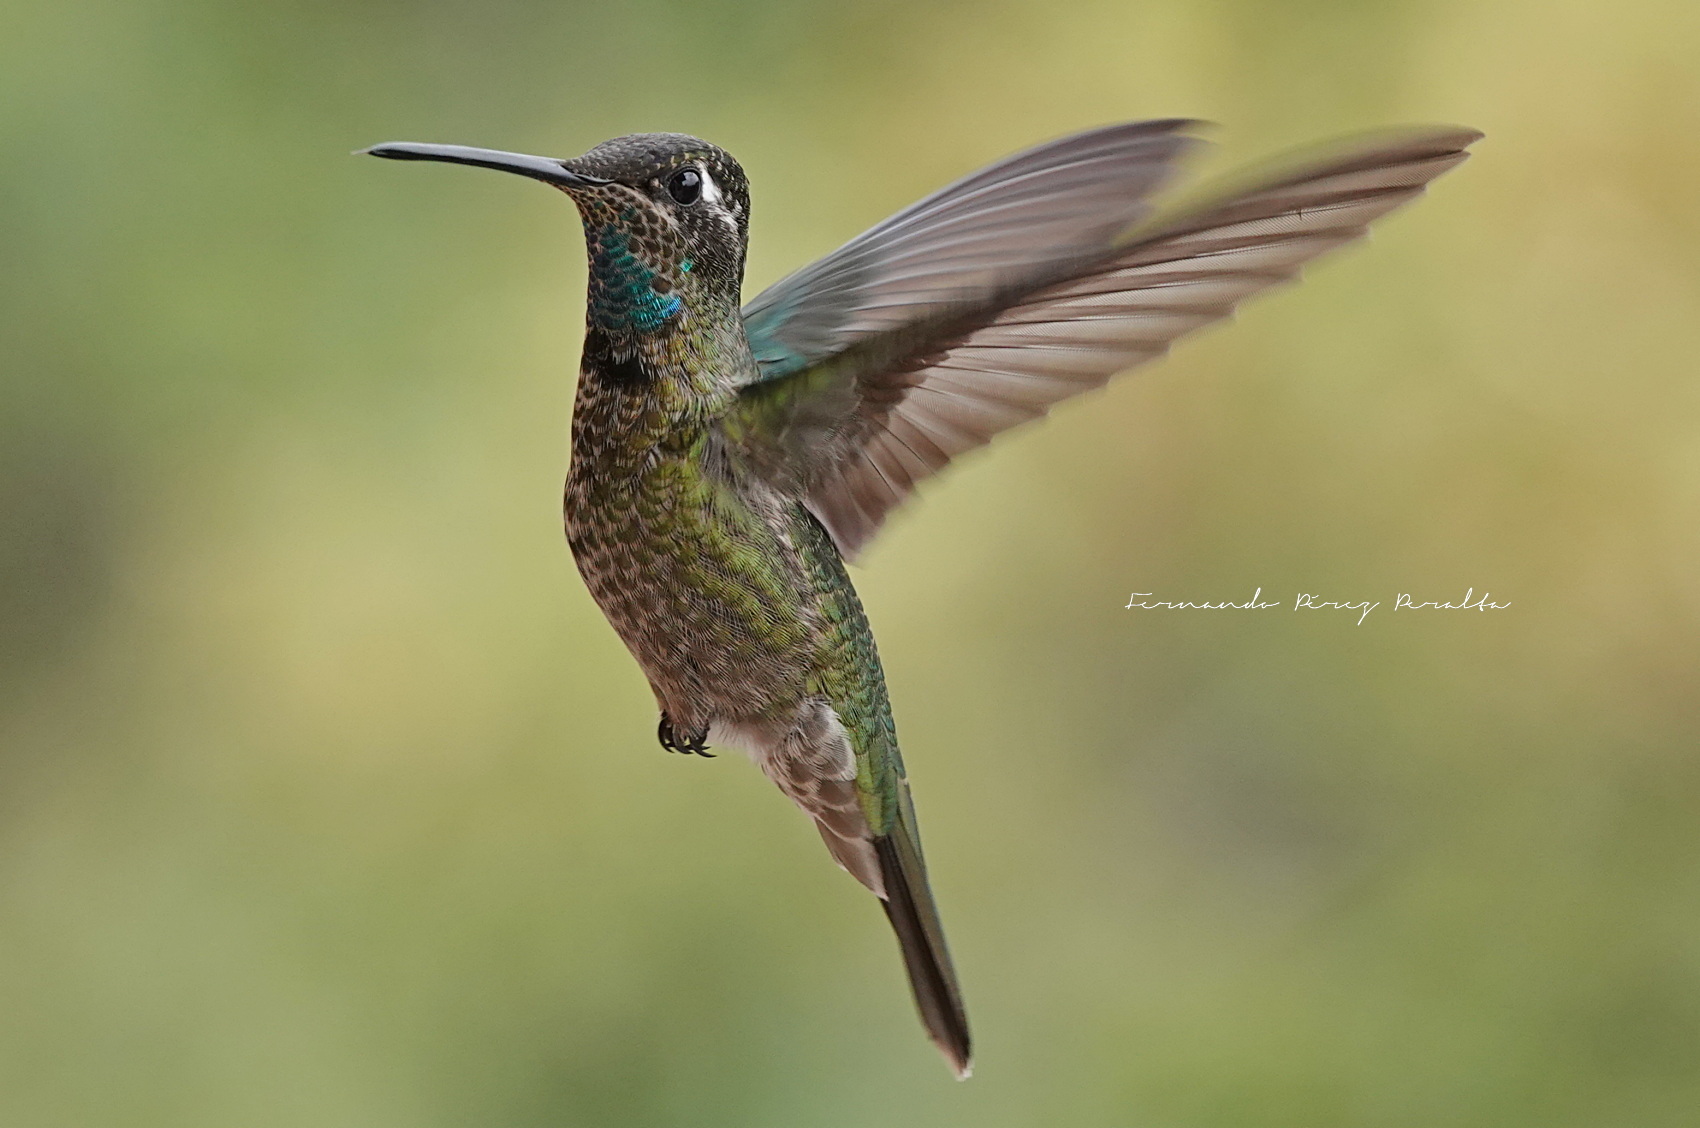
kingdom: Animalia
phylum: Chordata
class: Aves
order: Apodiformes
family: Trochilidae
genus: Eugenes
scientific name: Eugenes fulgens
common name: Magnificent hummingbird
